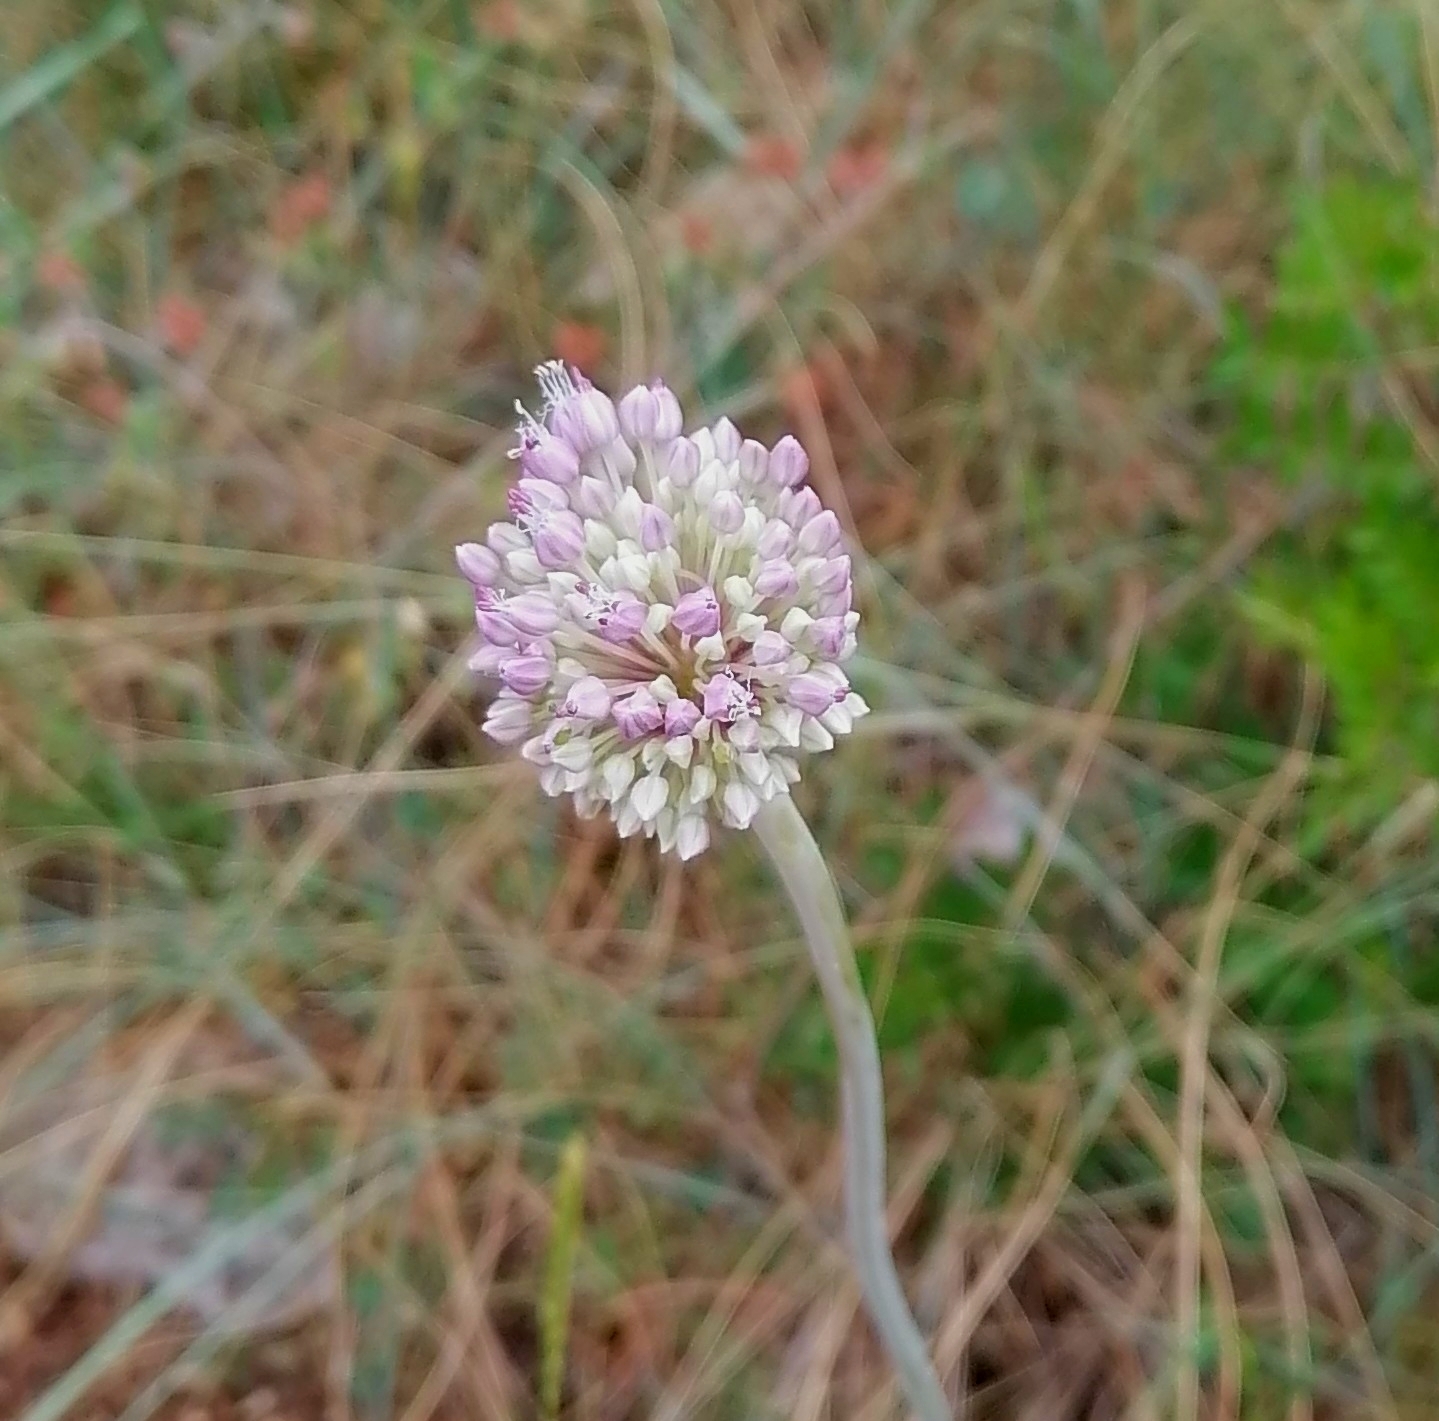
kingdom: Plantae
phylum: Tracheophyta
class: Liliopsida
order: Asparagales
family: Amaryllidaceae
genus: Allium
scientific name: Allium commutatum
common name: Sea garlic
